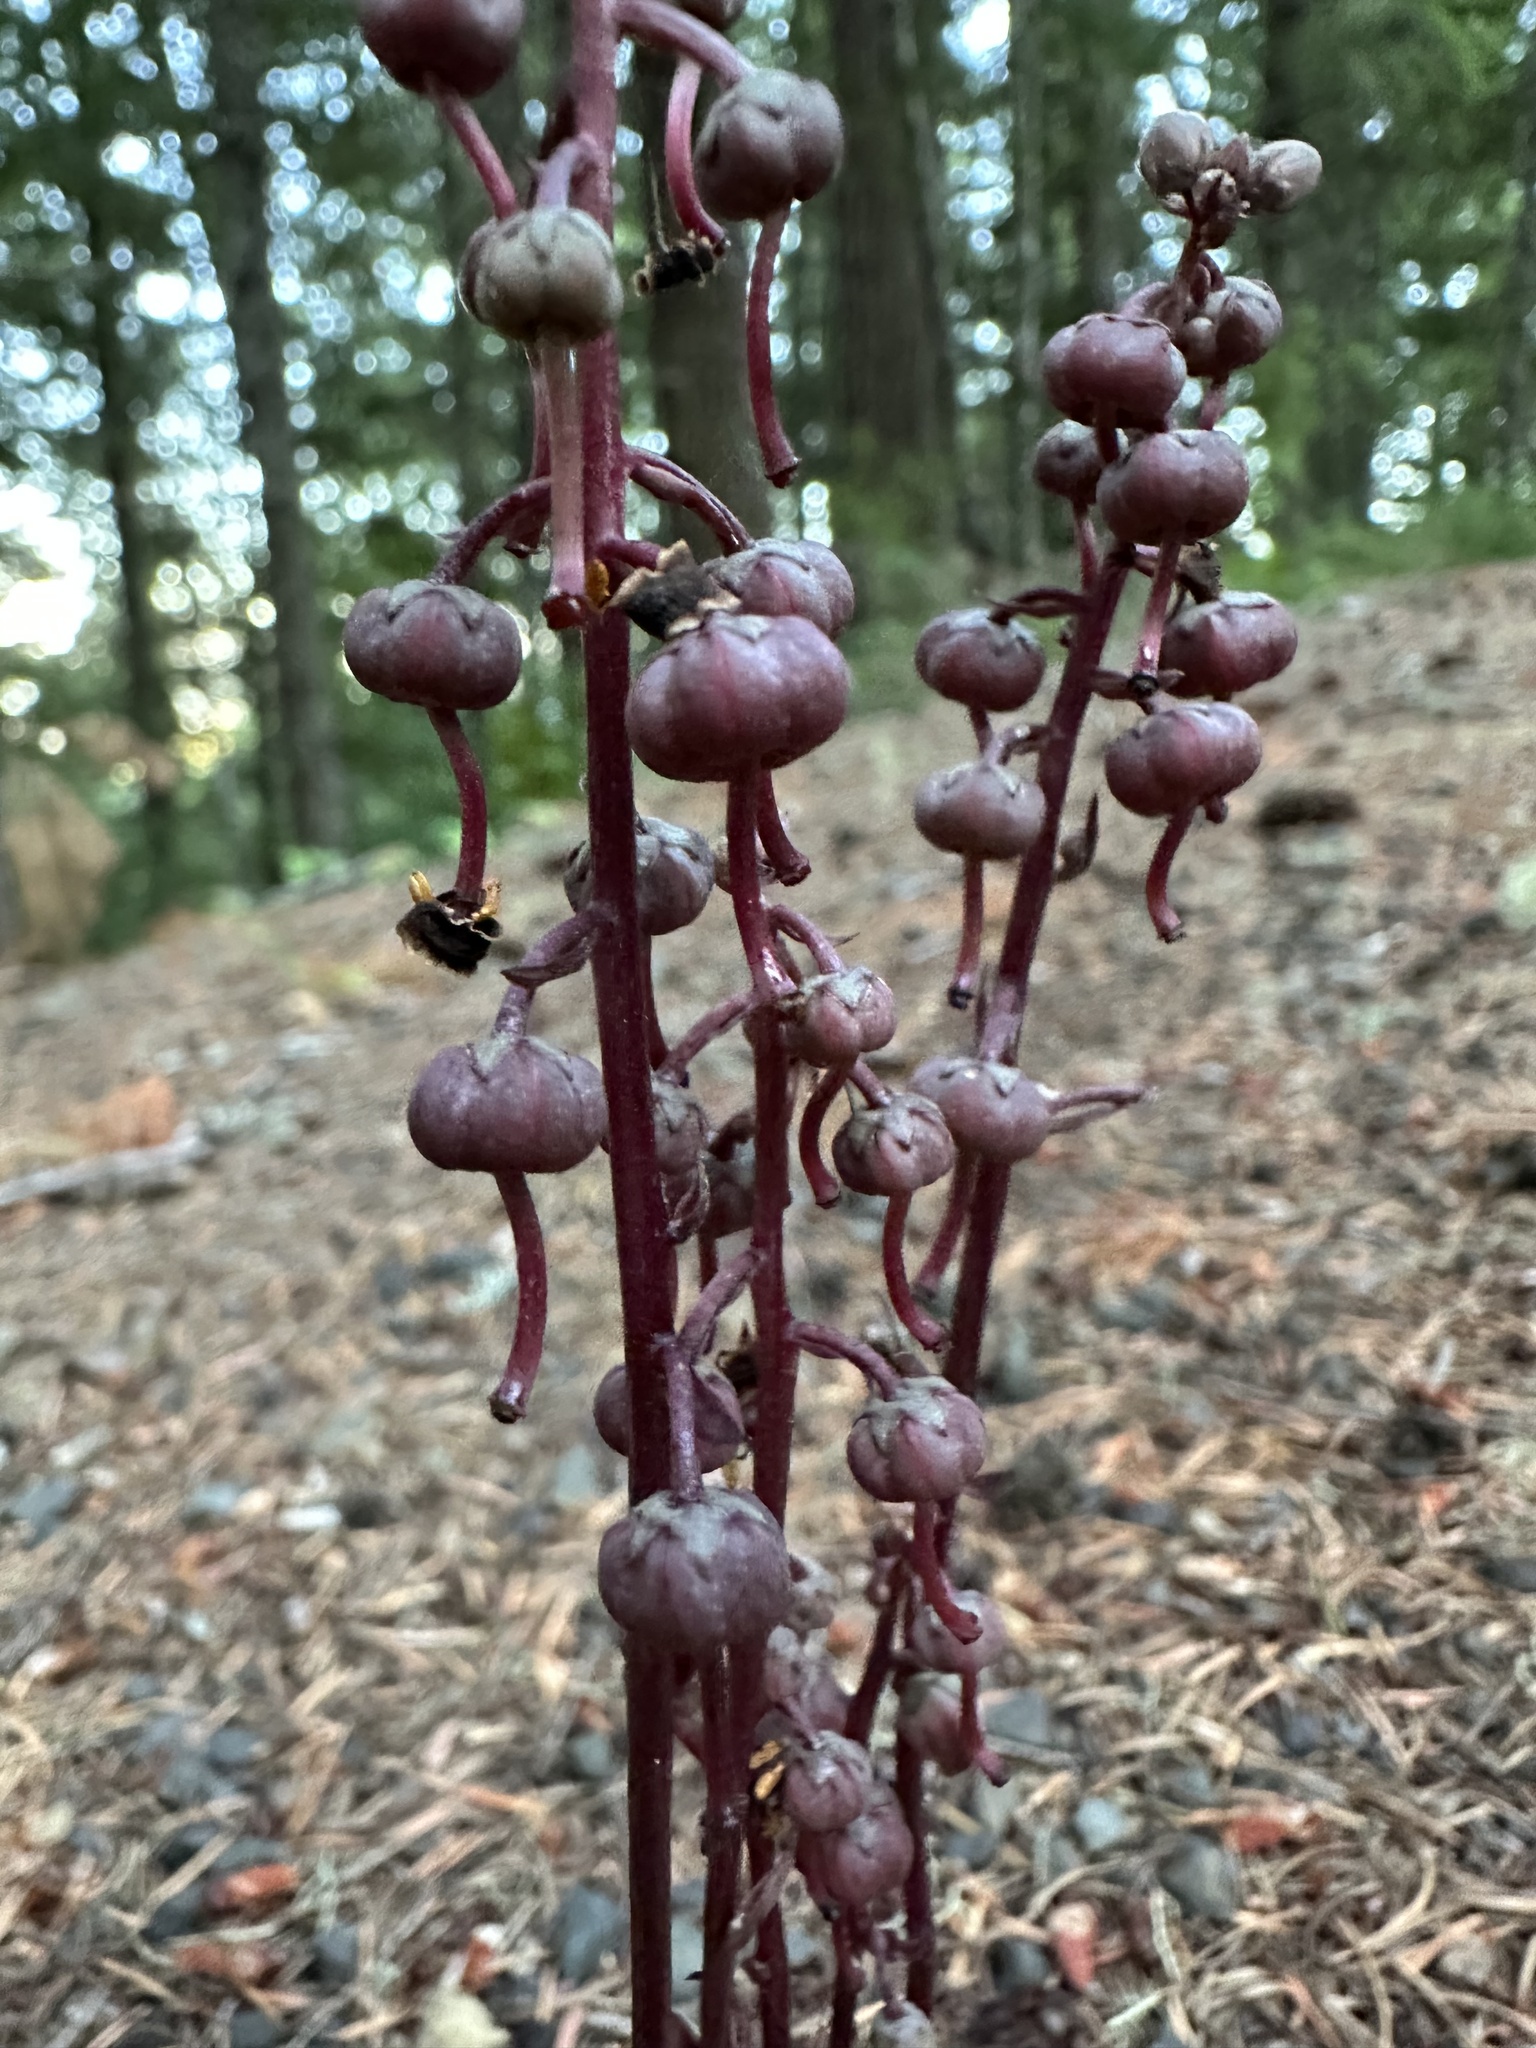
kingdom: Plantae
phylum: Tracheophyta
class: Magnoliopsida
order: Ericales
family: Ericaceae
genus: Pyrola
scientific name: Pyrola aphylla
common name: Leafless wintergreen
